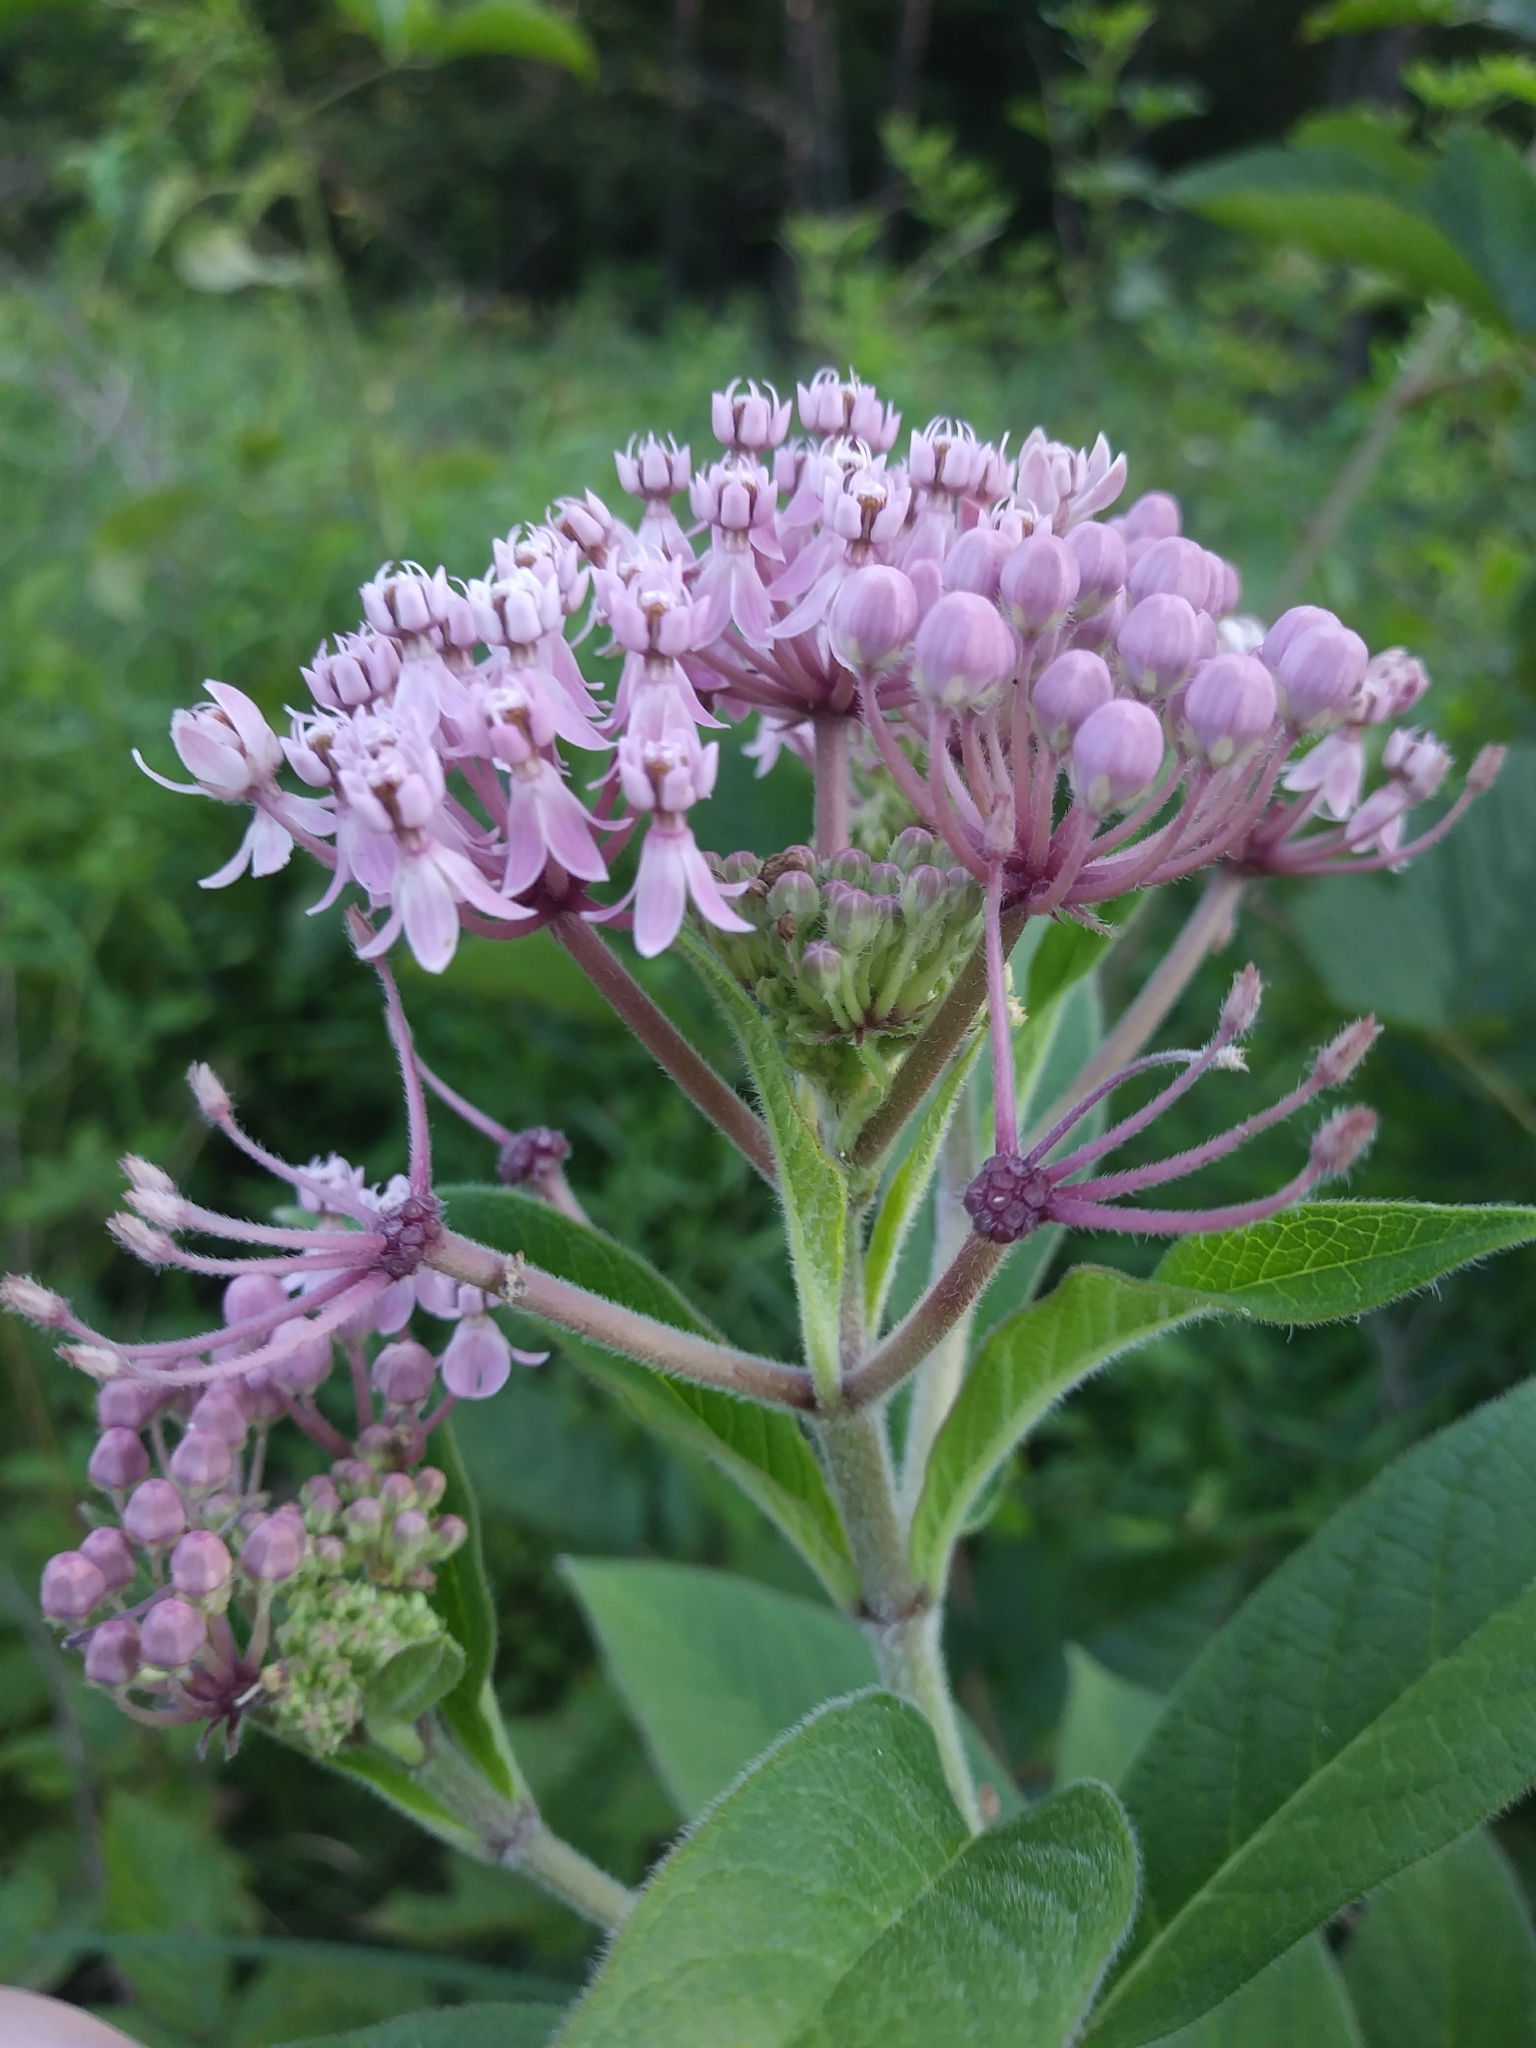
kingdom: Plantae
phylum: Tracheophyta
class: Magnoliopsida
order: Gentianales
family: Apocynaceae
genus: Asclepias
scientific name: Asclepias incarnata
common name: Swamp milkweed
